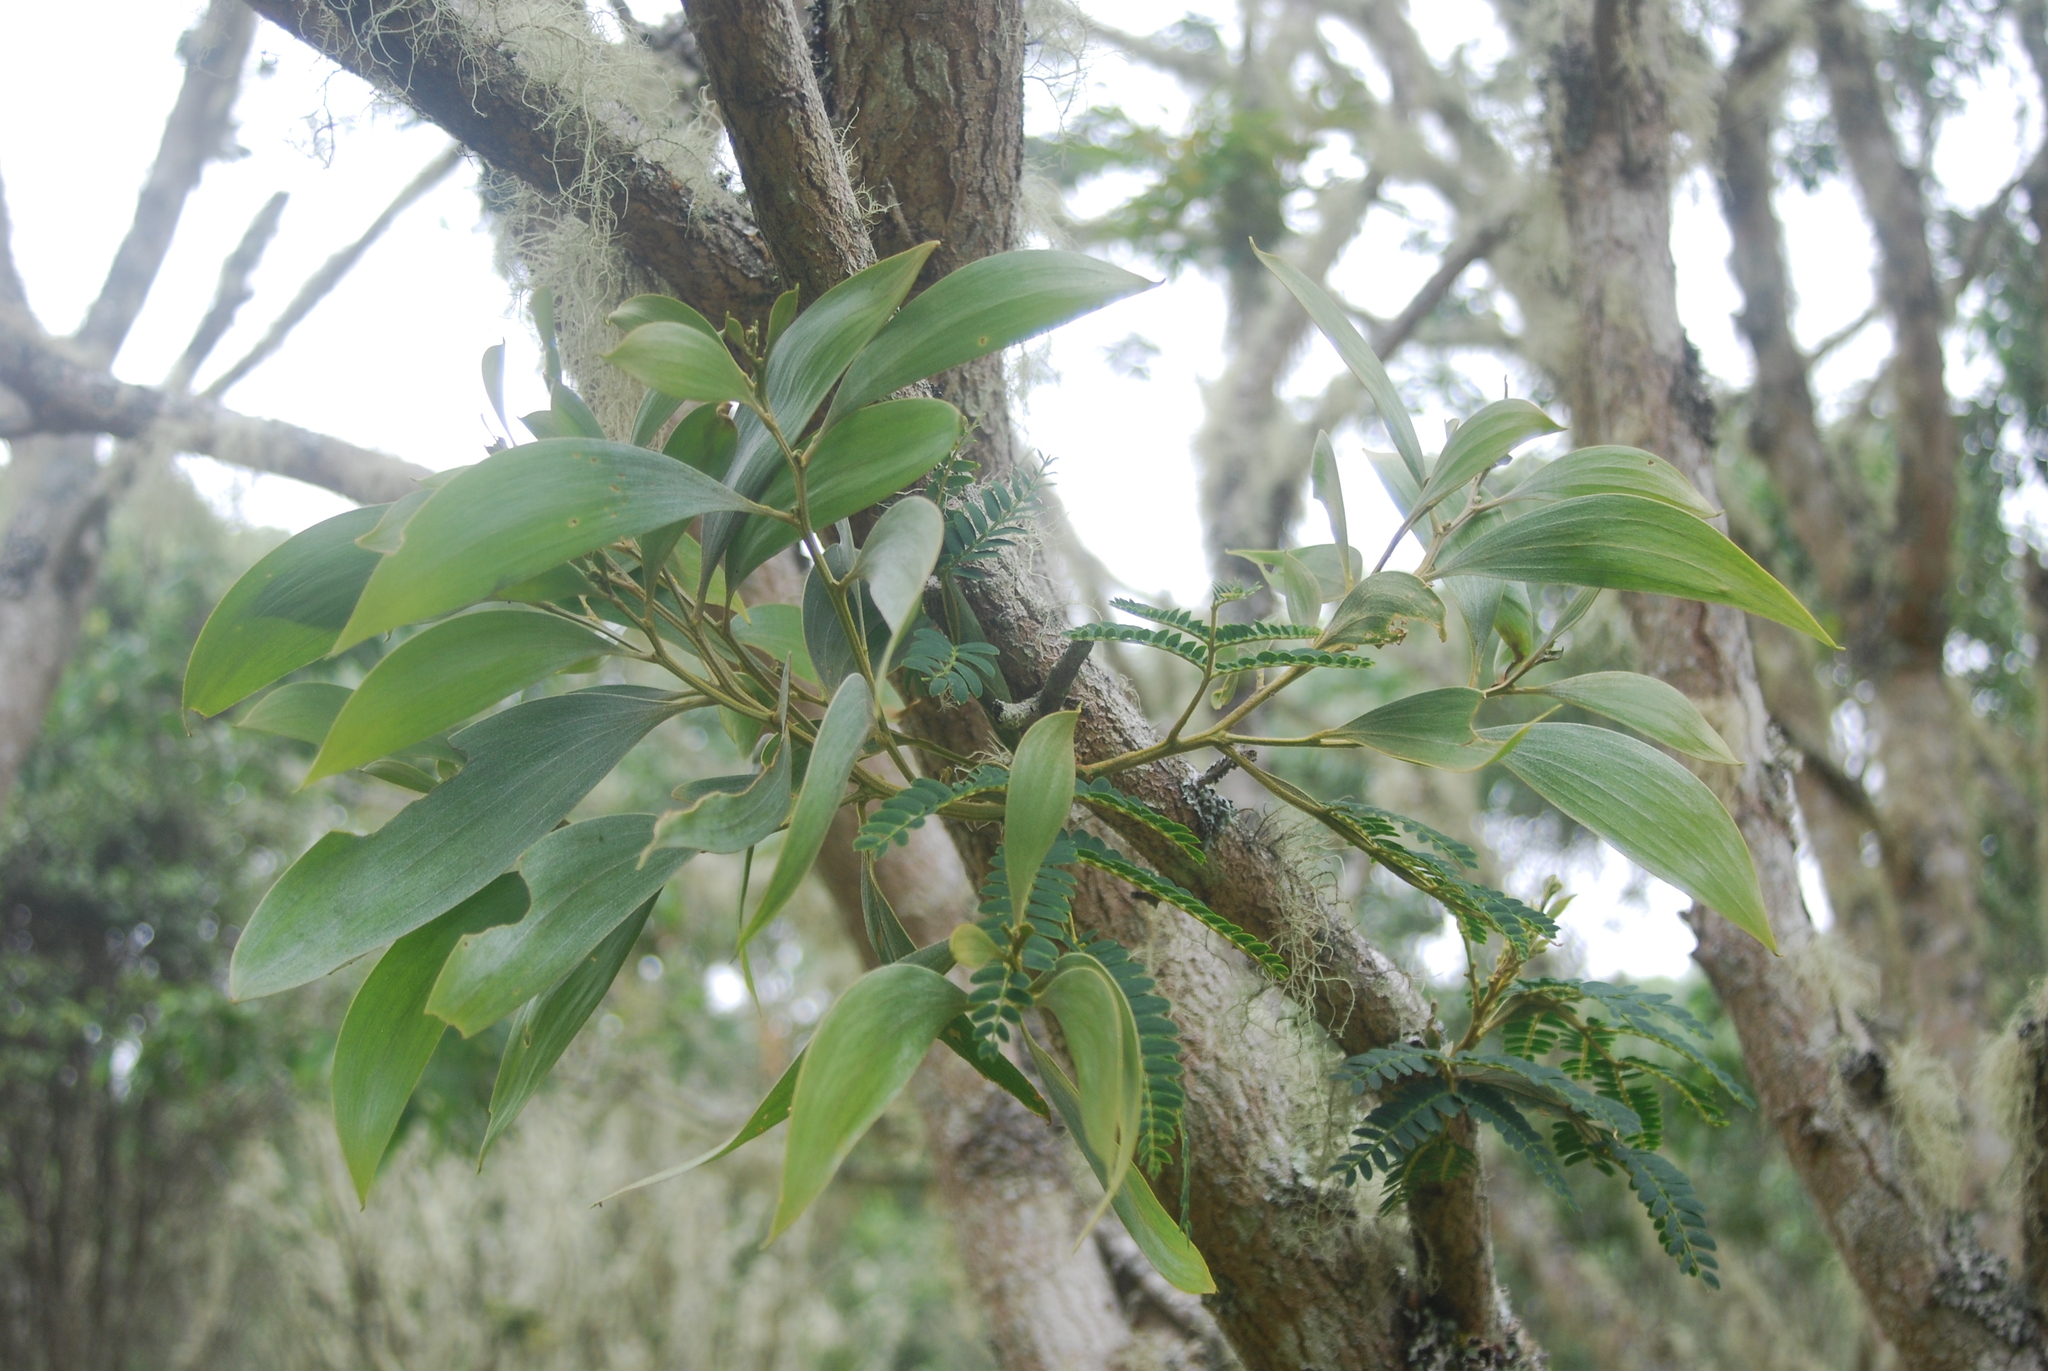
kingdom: Plantae
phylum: Tracheophyta
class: Magnoliopsida
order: Fabales
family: Fabaceae
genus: Acacia
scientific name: Acacia koa
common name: Gray koa
